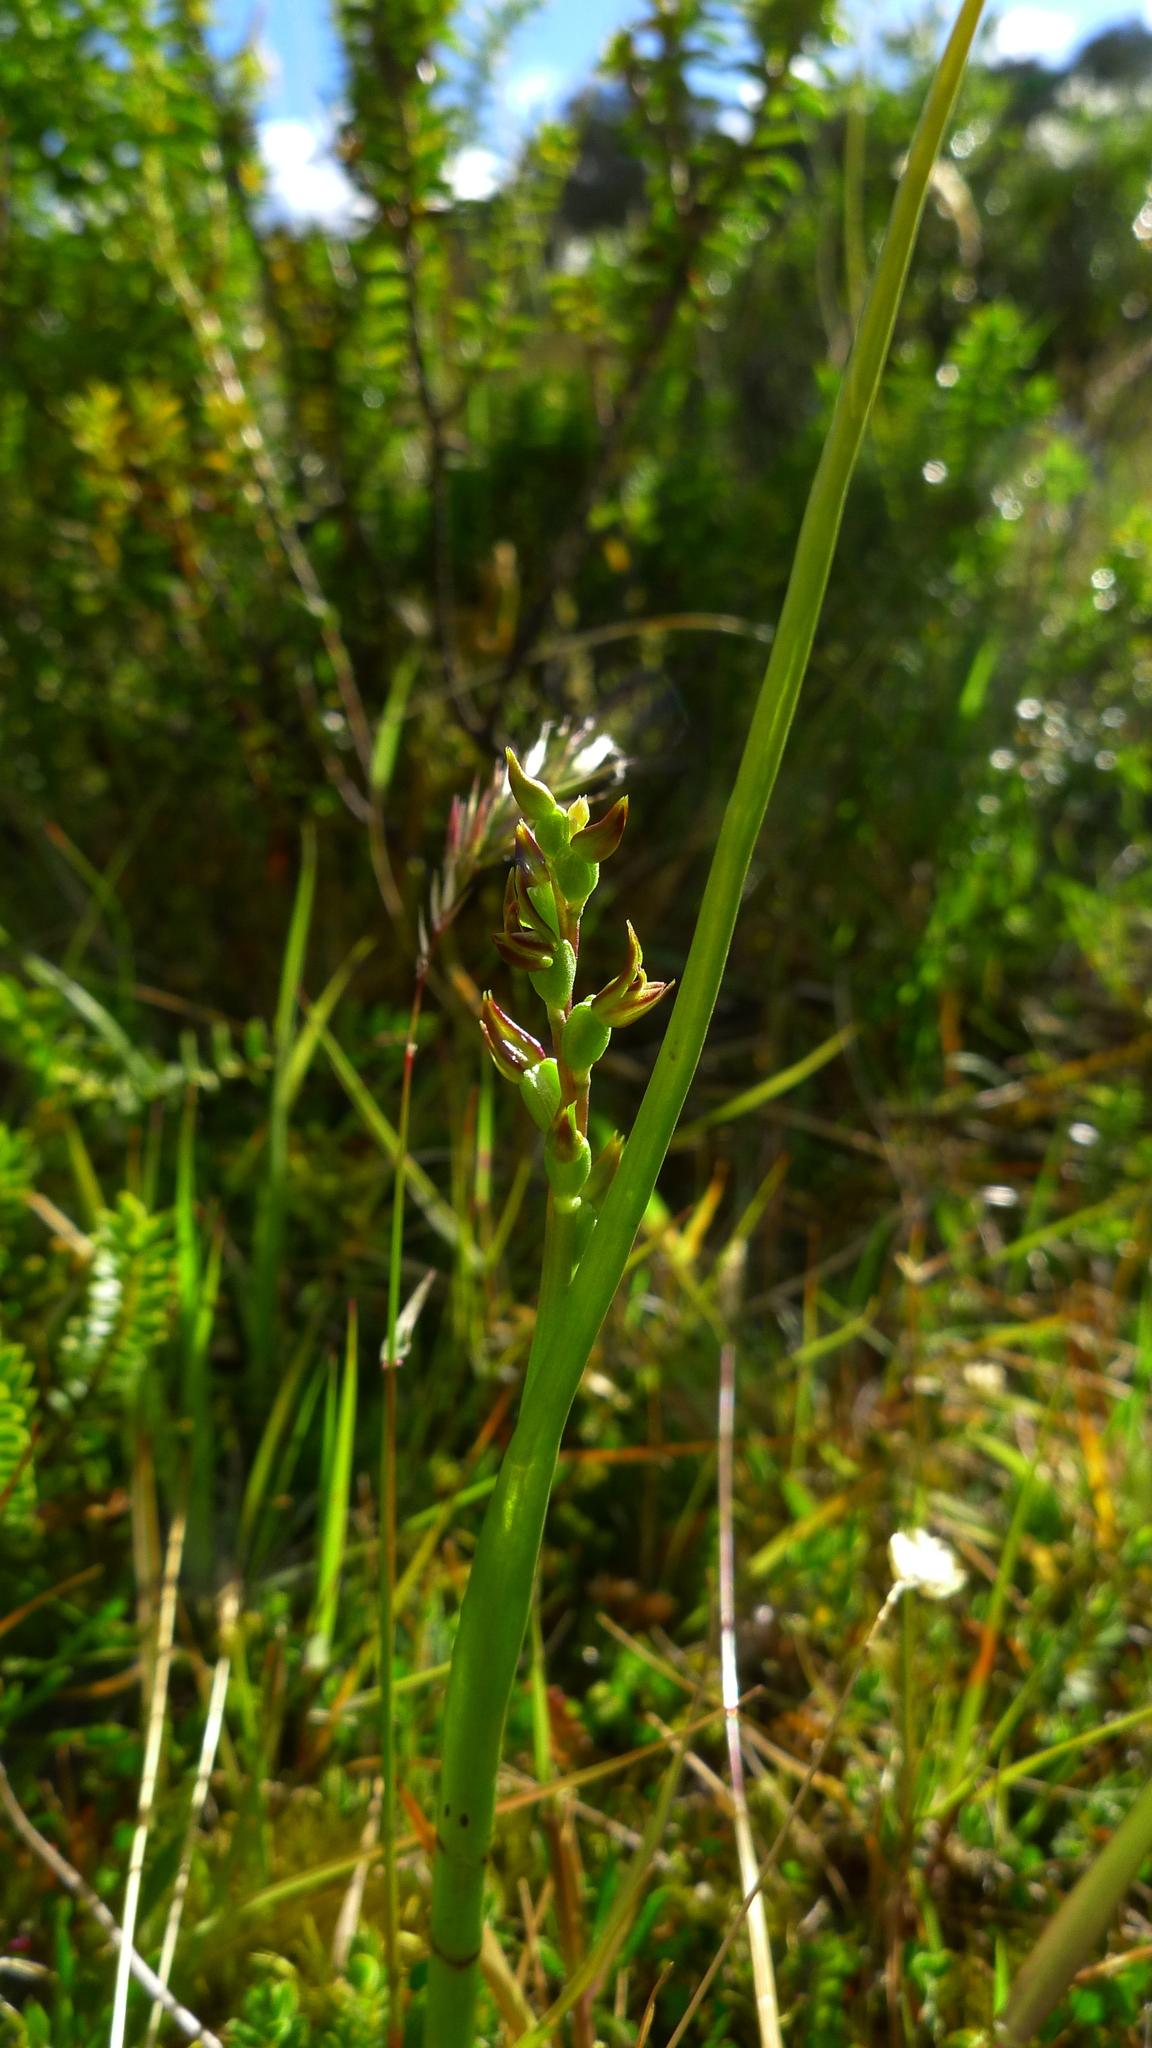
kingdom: Plantae
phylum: Tracheophyta
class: Liliopsida
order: Asparagales
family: Orchidaceae
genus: Prasophyllum
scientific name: Prasophyllum colensoi
